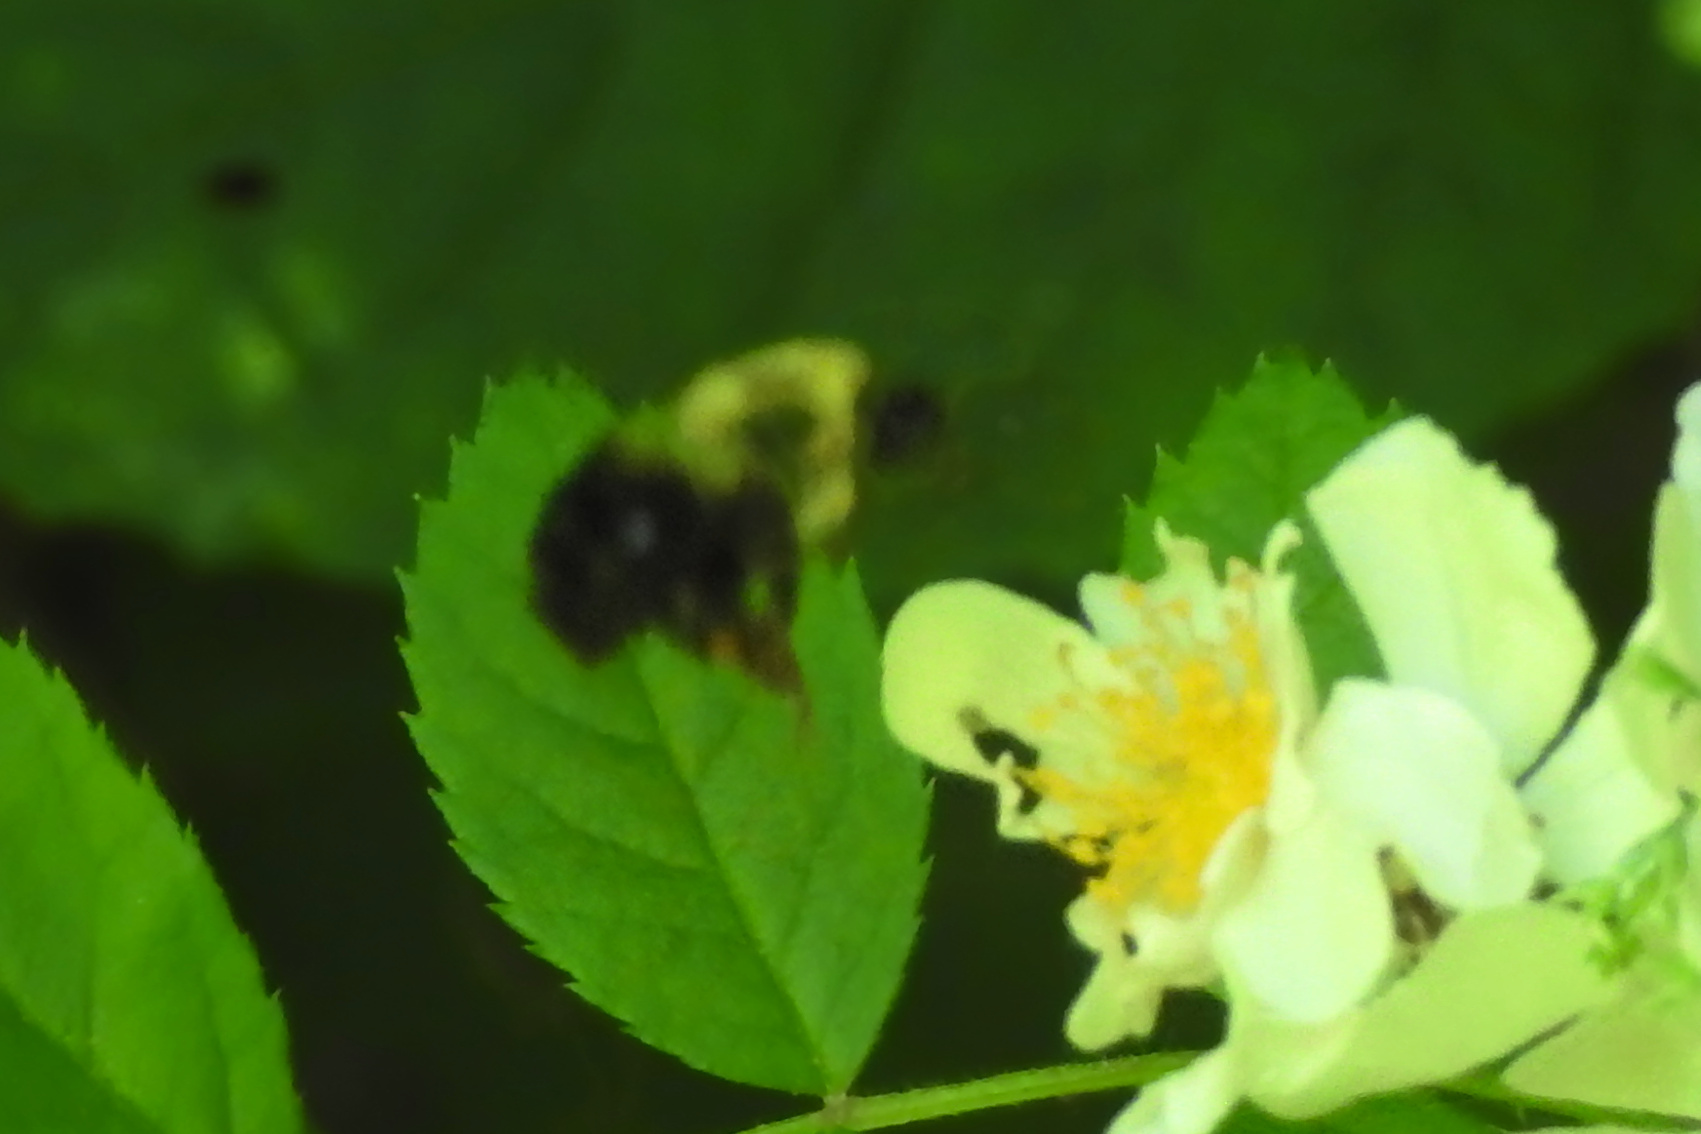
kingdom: Animalia
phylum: Arthropoda
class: Insecta
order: Hymenoptera
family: Apidae
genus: Bombus
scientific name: Bombus
